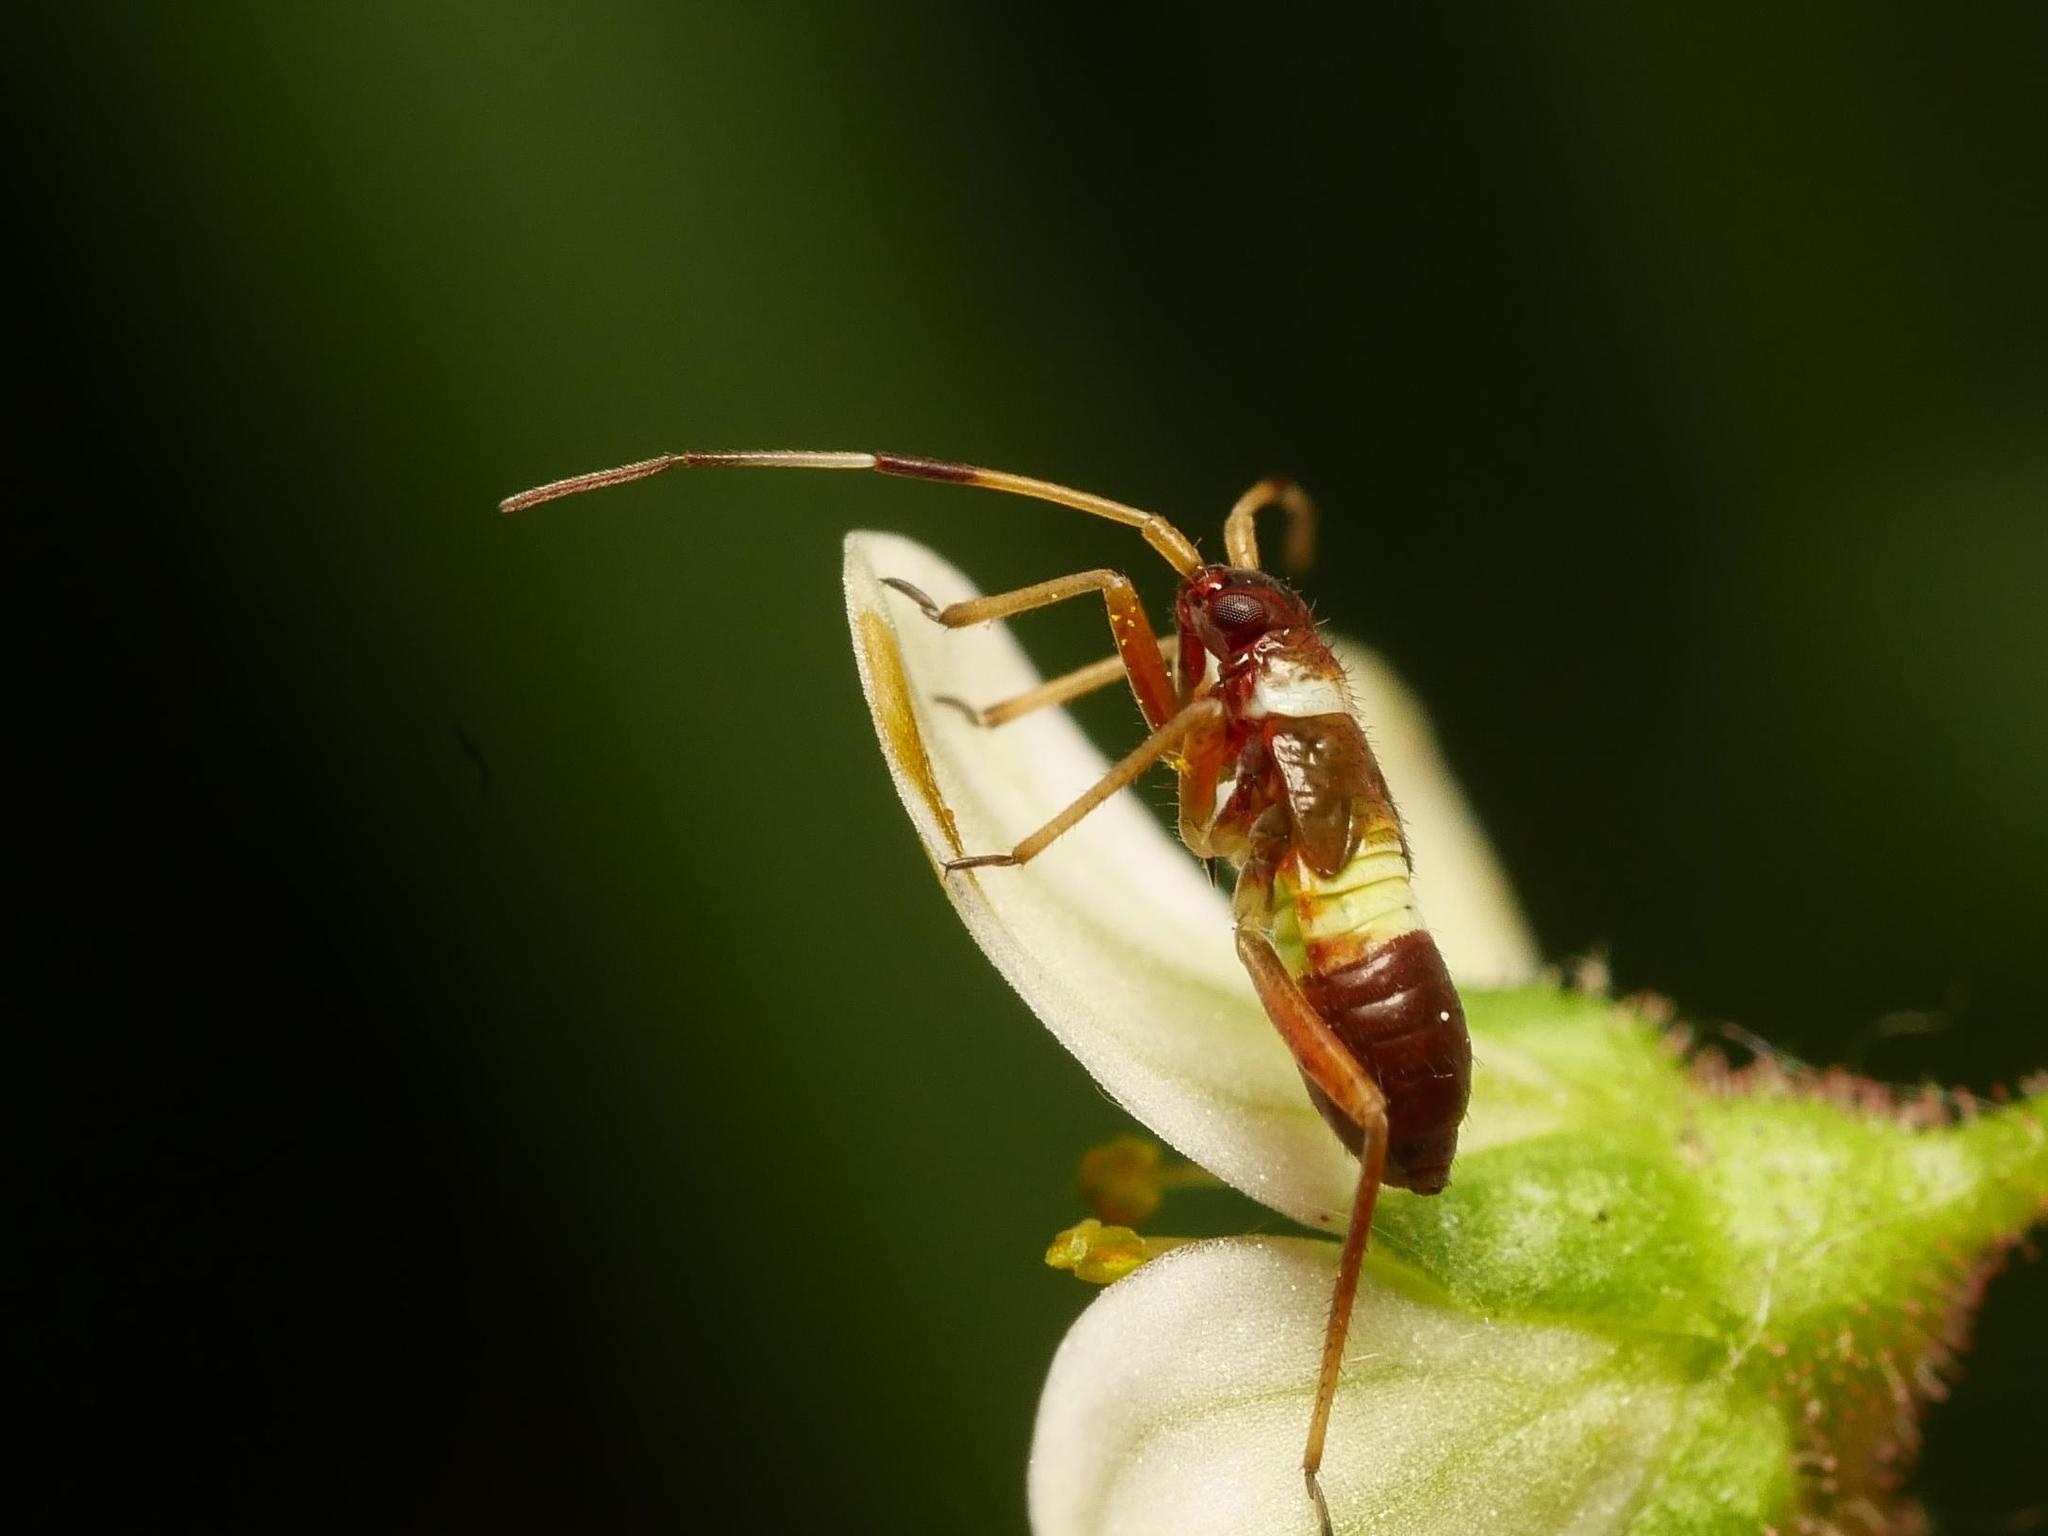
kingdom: Animalia
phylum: Arthropoda
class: Insecta
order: Hemiptera
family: Miridae
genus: Closterotomus
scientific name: Closterotomus biclavatus
